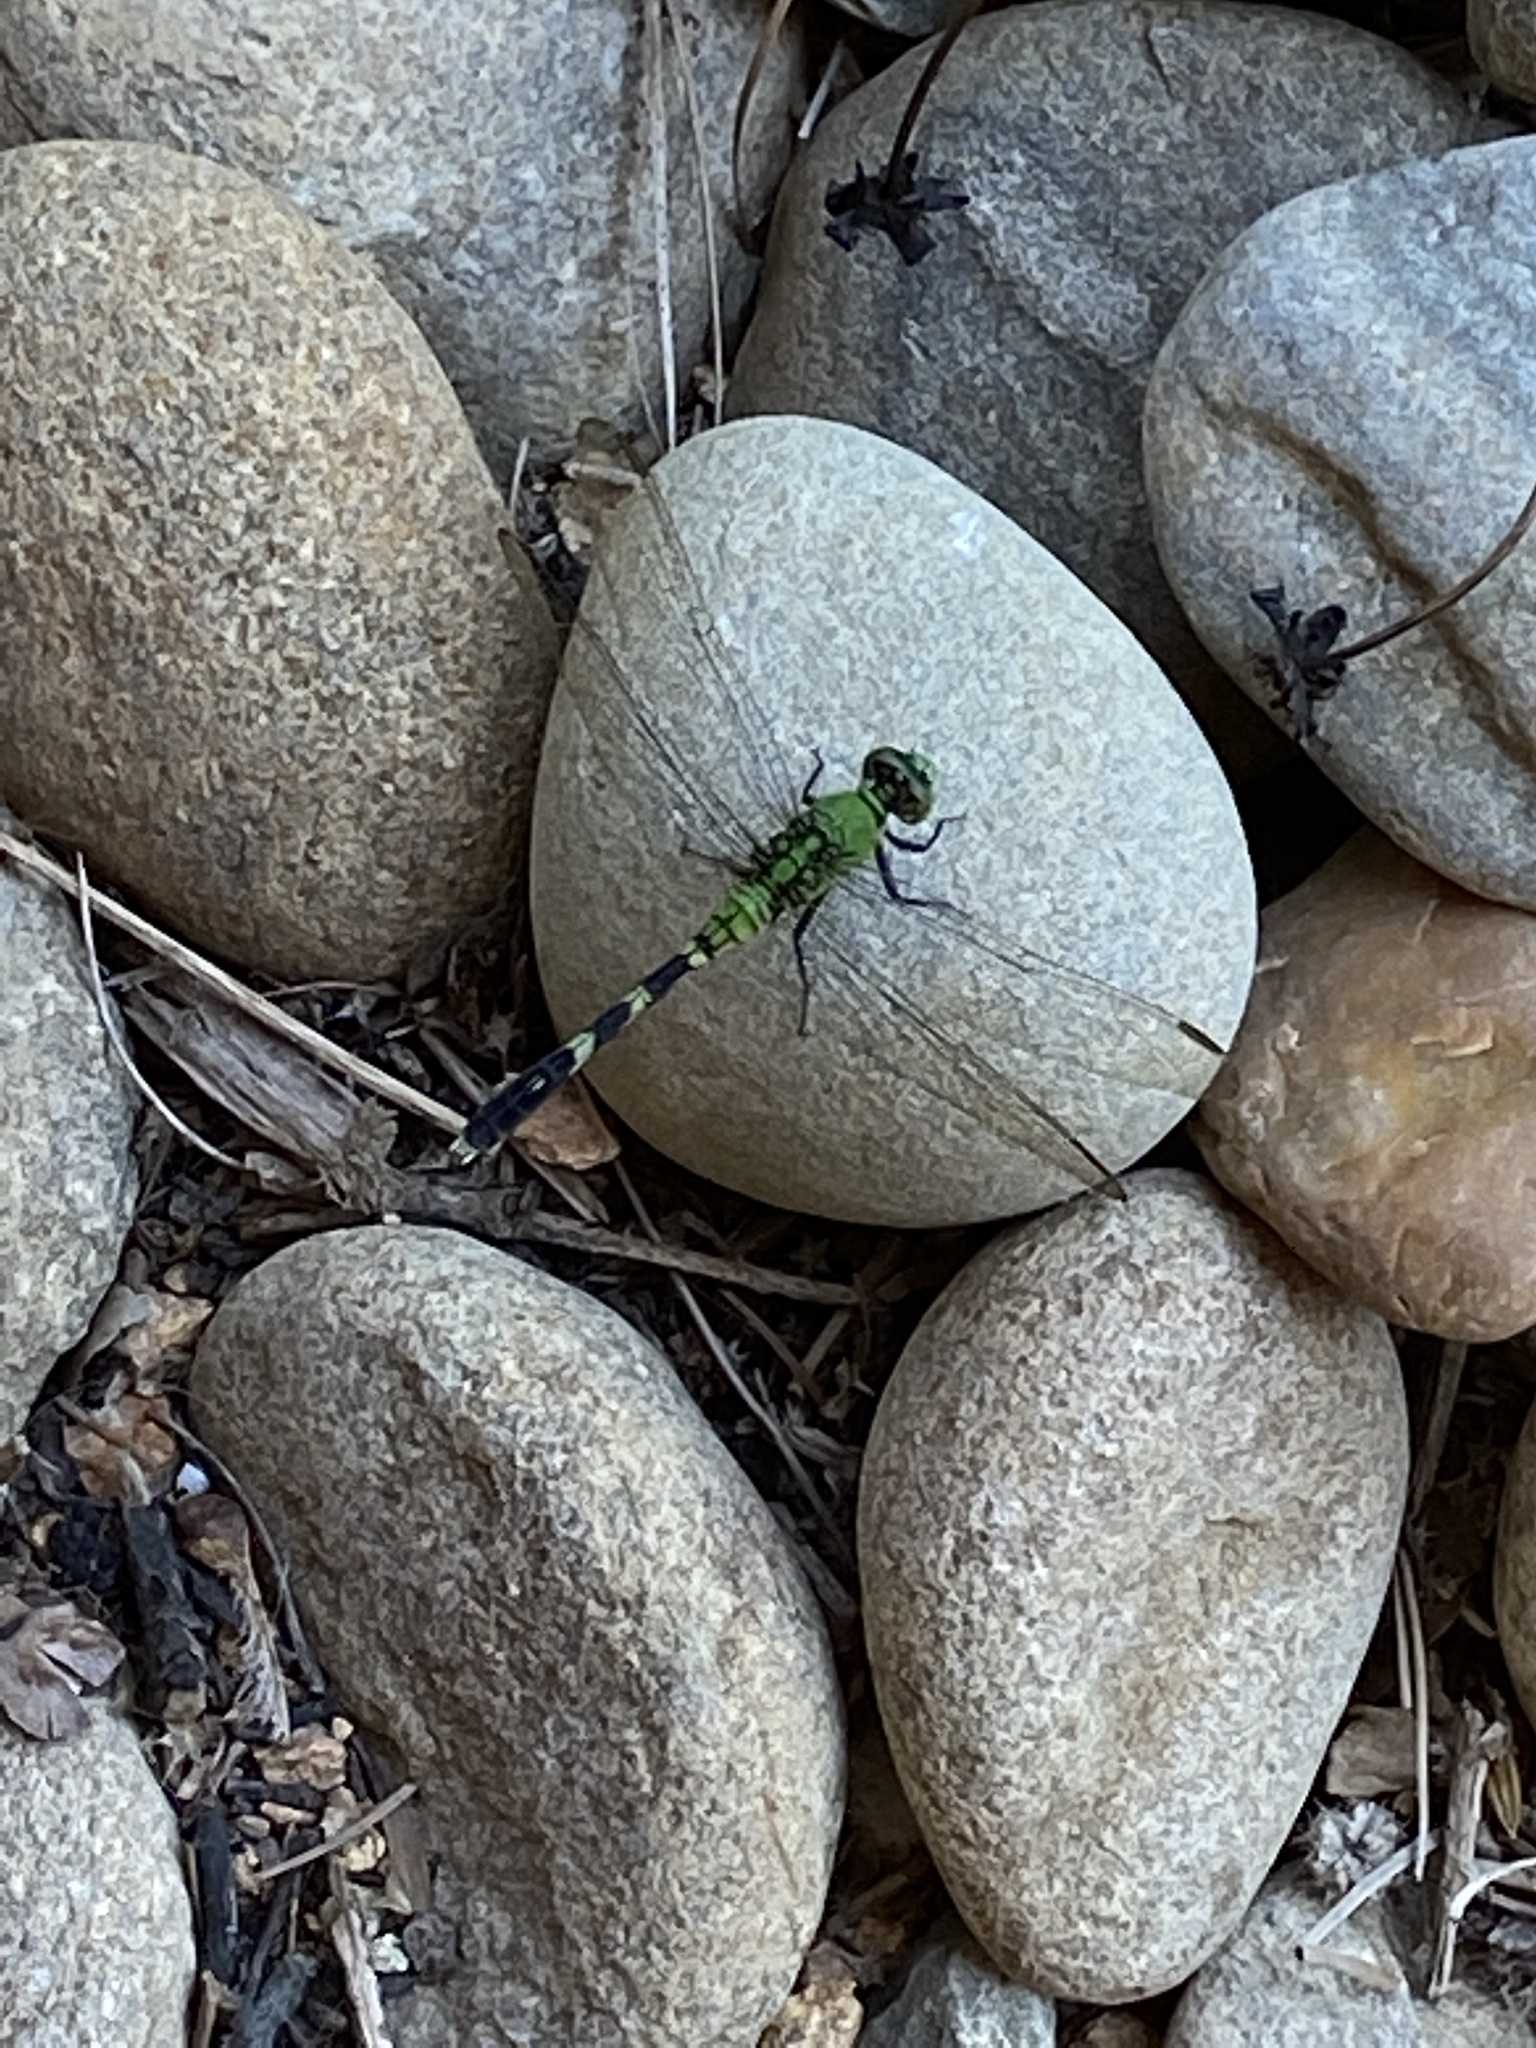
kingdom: Animalia
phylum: Arthropoda
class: Insecta
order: Odonata
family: Libellulidae
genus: Erythemis
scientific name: Erythemis simplicicollis
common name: Eastern pondhawk
